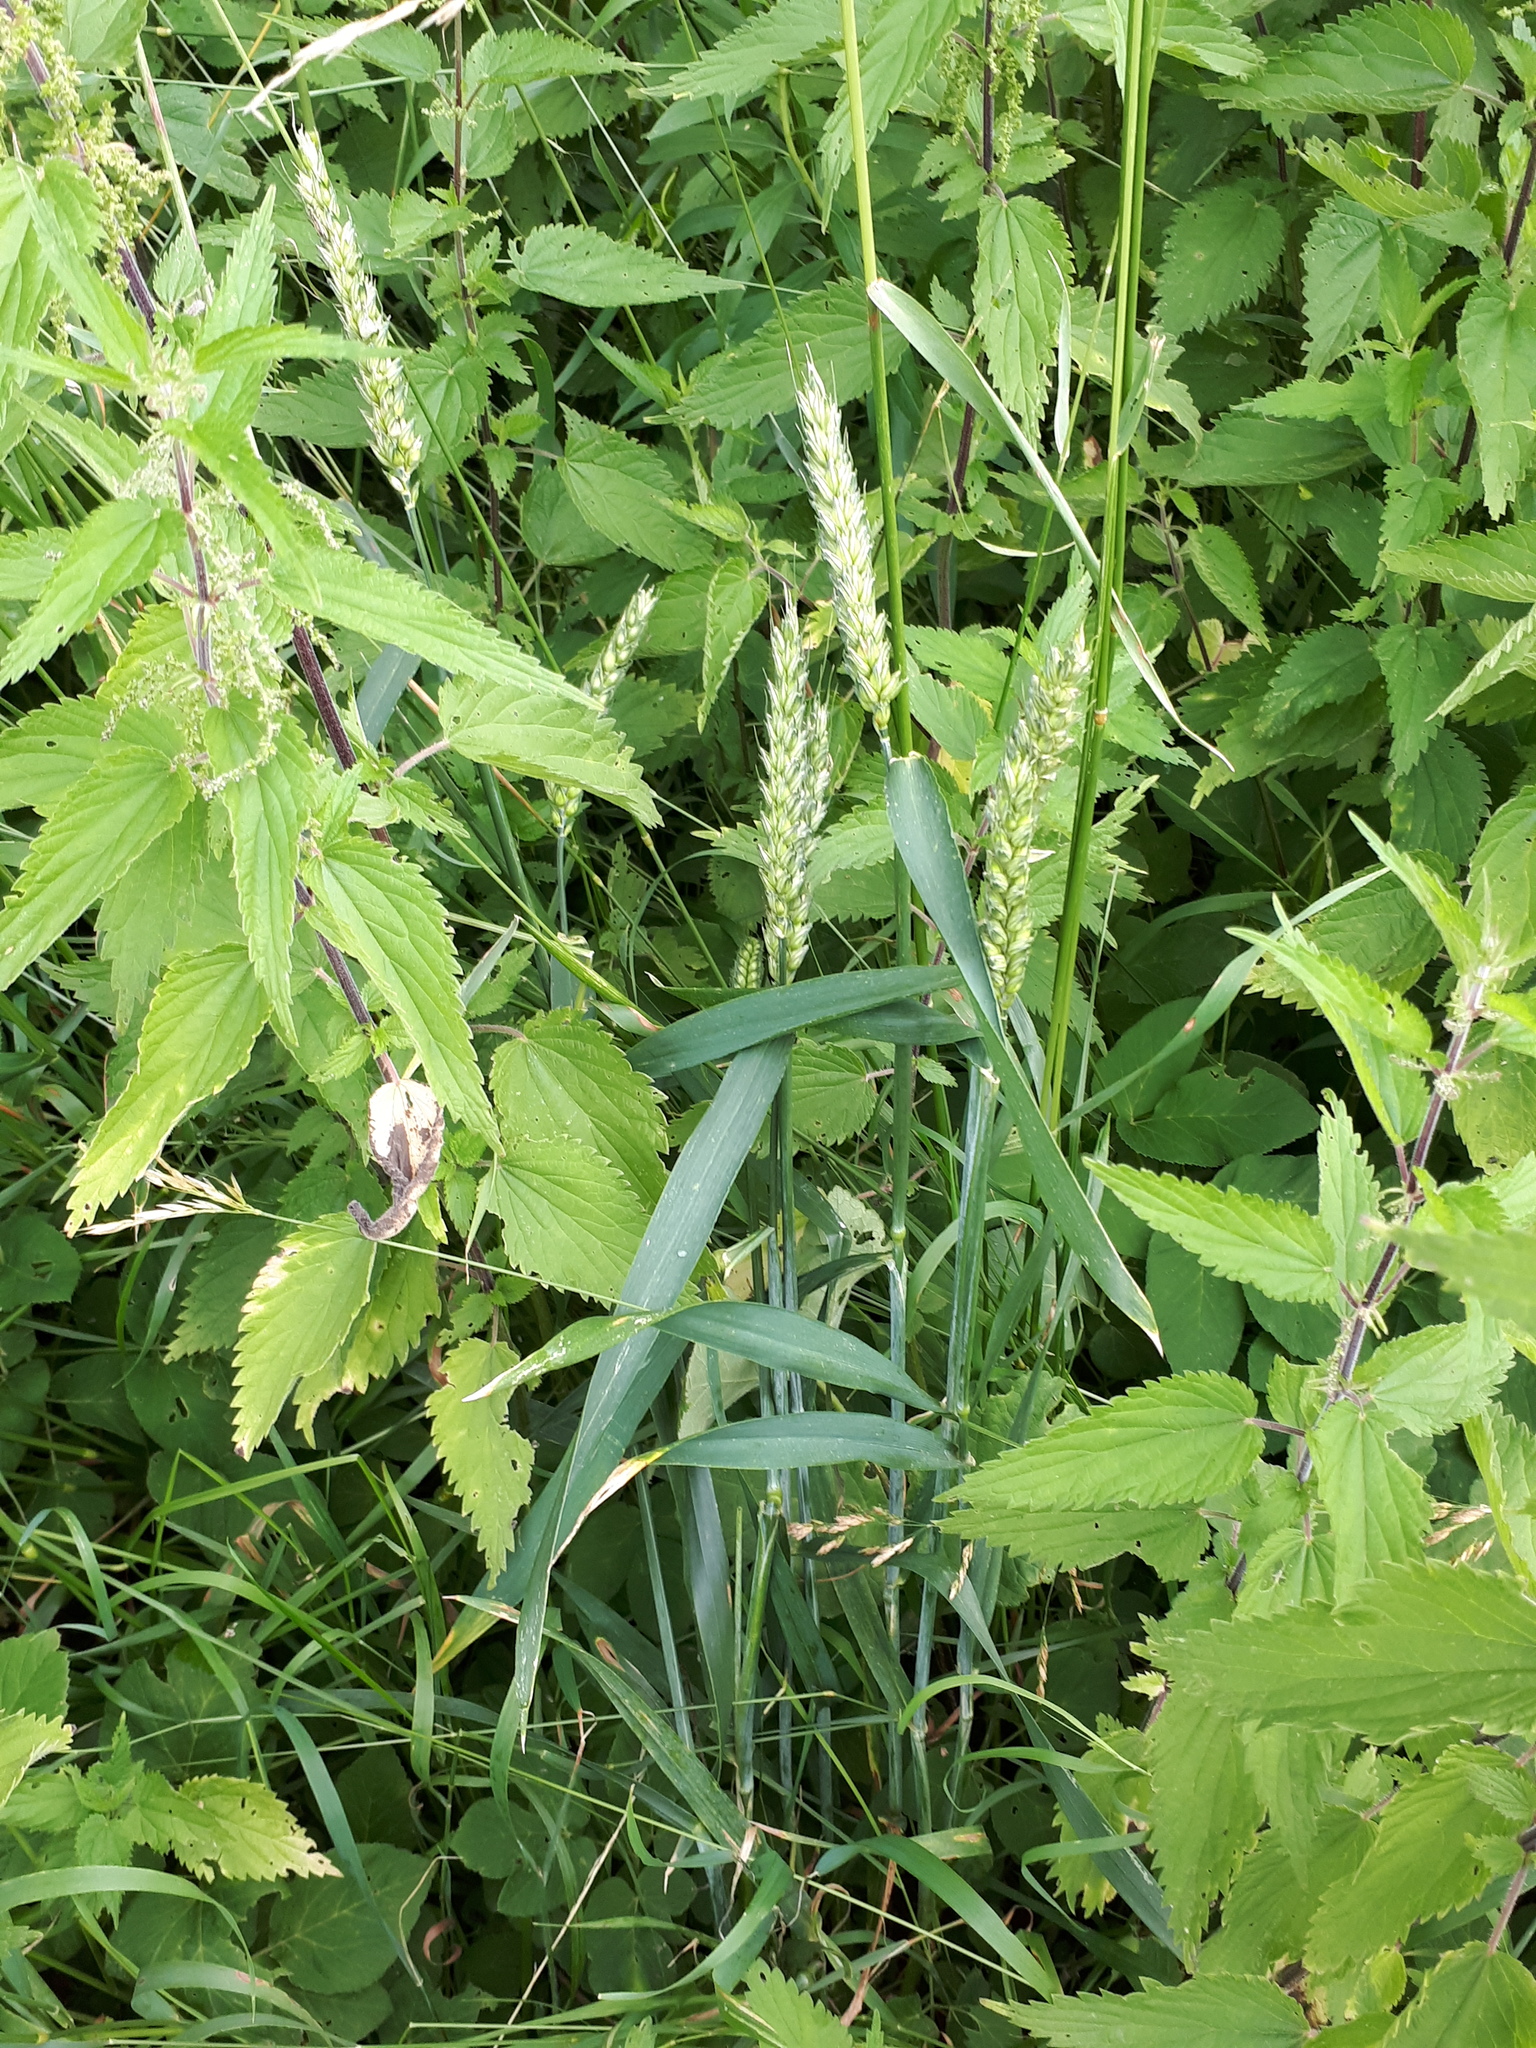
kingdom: Plantae
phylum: Tracheophyta
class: Liliopsida
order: Poales
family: Poaceae
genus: Triticum
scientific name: Triticum aestivum
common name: Common wheat
